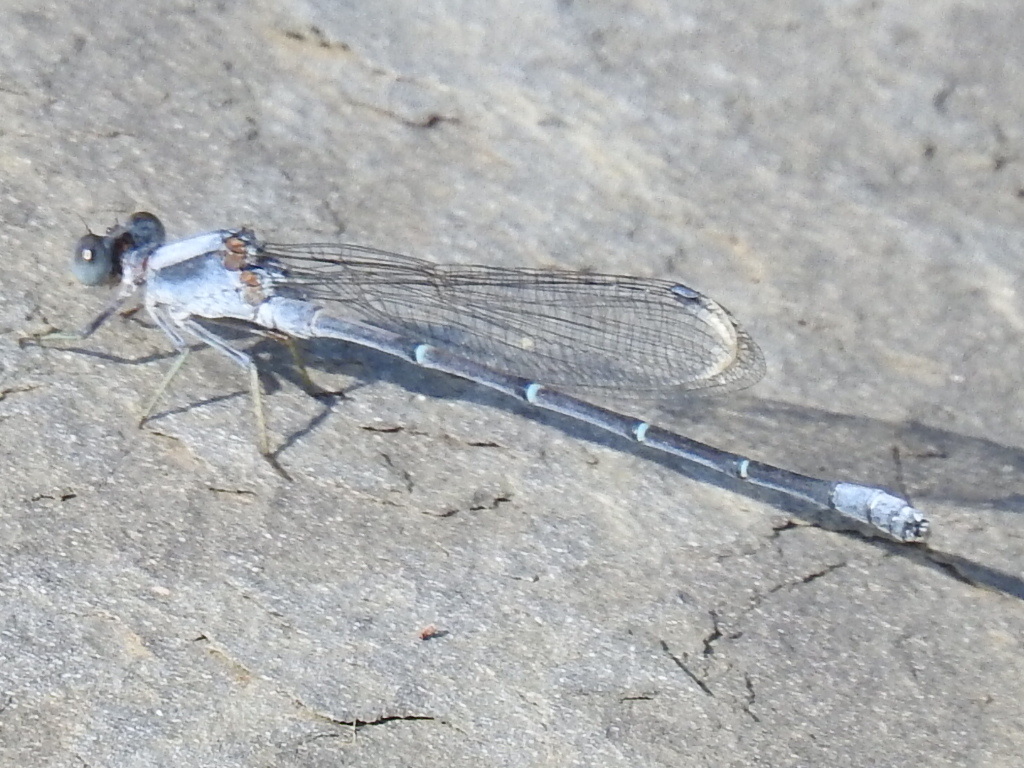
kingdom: Animalia
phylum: Arthropoda
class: Insecta
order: Odonata
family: Coenagrionidae
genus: Argia
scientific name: Argia moesta
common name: Powdered dancer
